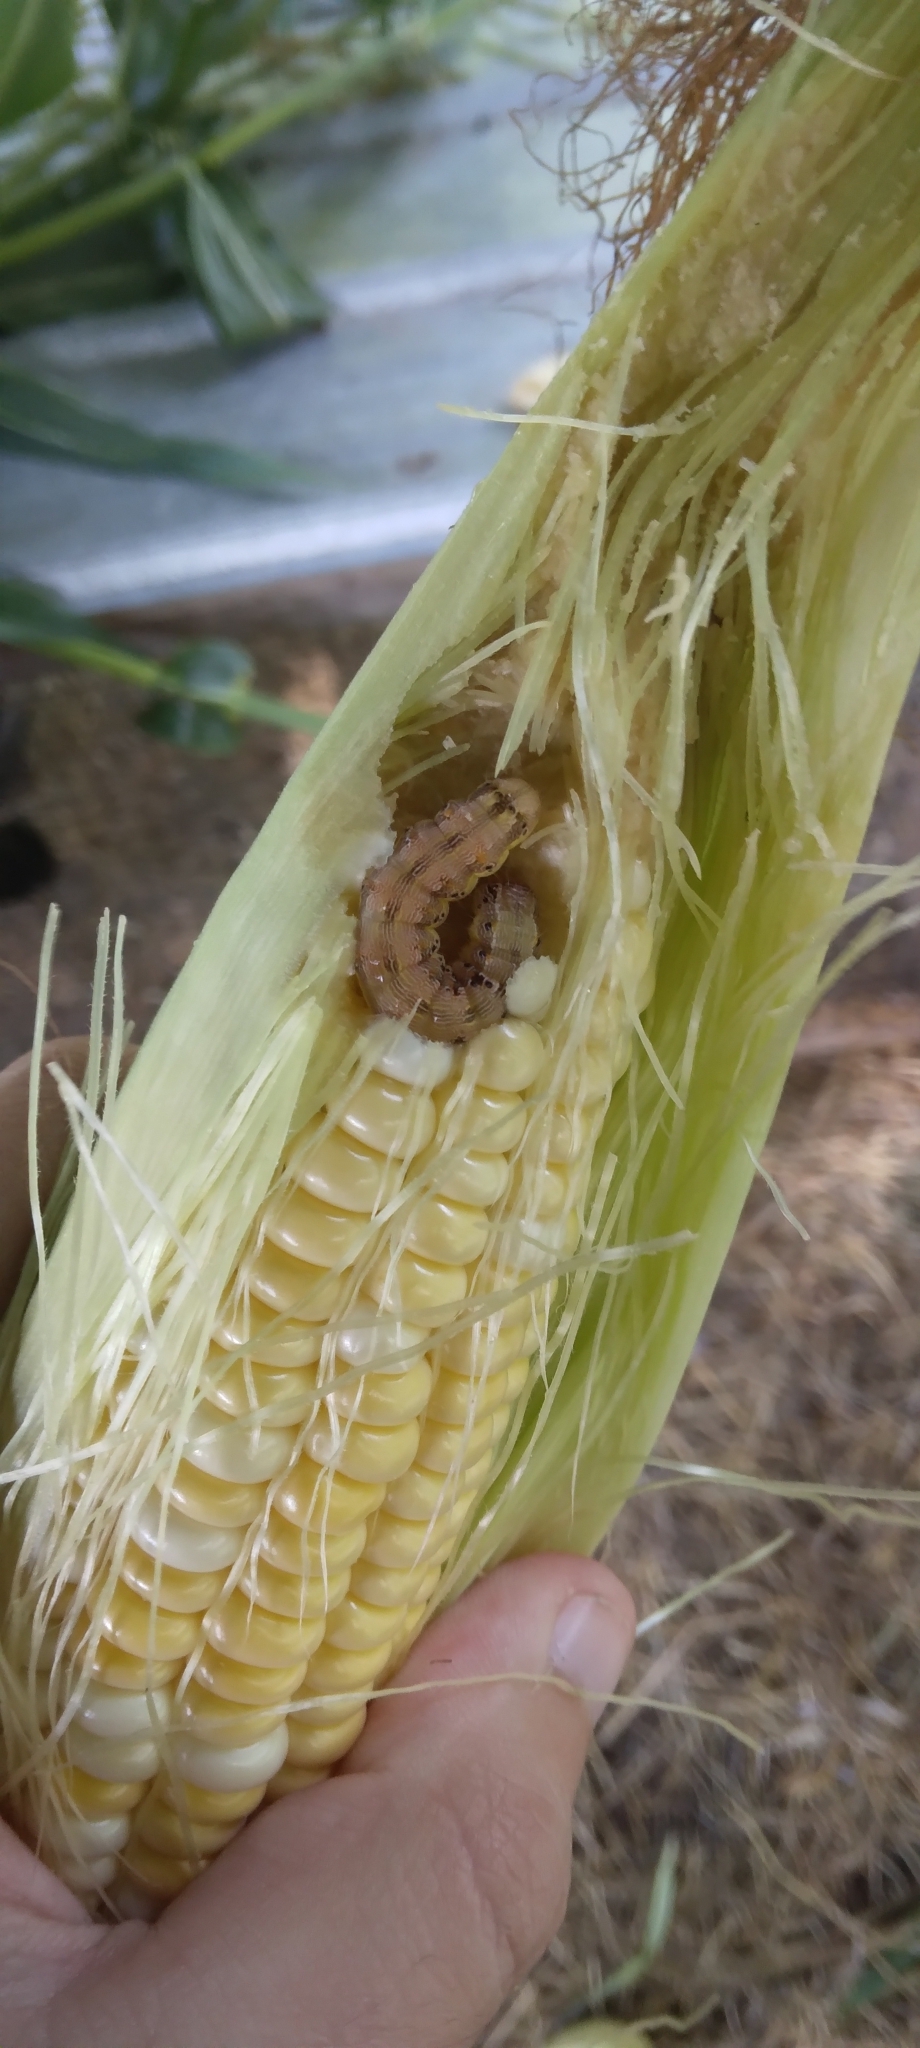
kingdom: Animalia
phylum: Arthropoda
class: Insecta
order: Lepidoptera
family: Noctuidae
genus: Helicoverpa
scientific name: Helicoverpa zea
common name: Bollworm
